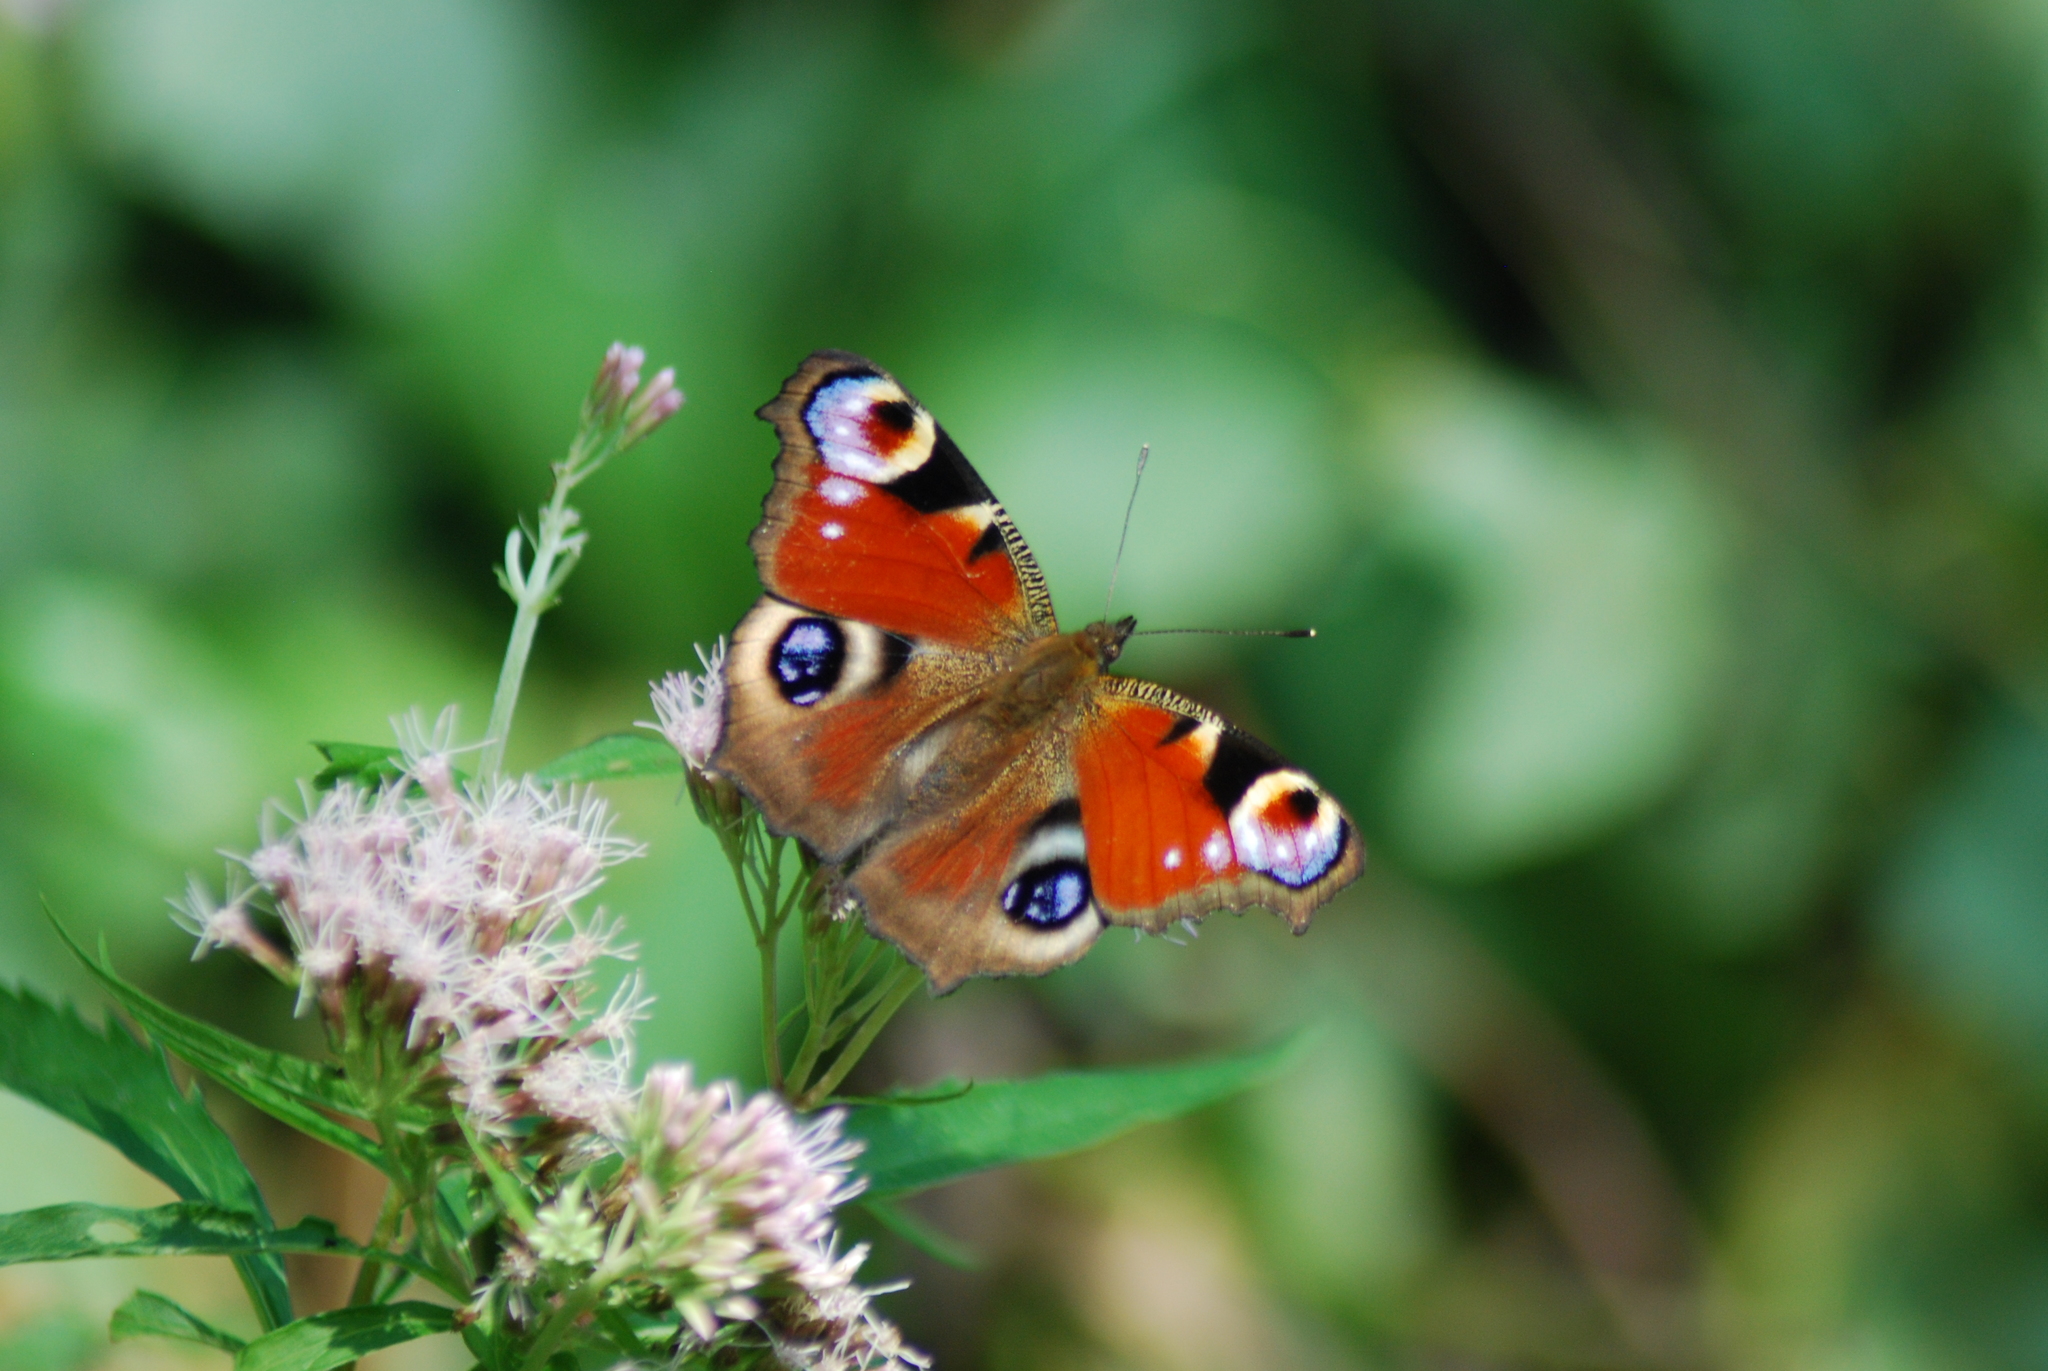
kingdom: Animalia
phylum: Arthropoda
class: Insecta
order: Lepidoptera
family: Nymphalidae
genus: Aglais
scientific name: Aglais io
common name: Peacock
